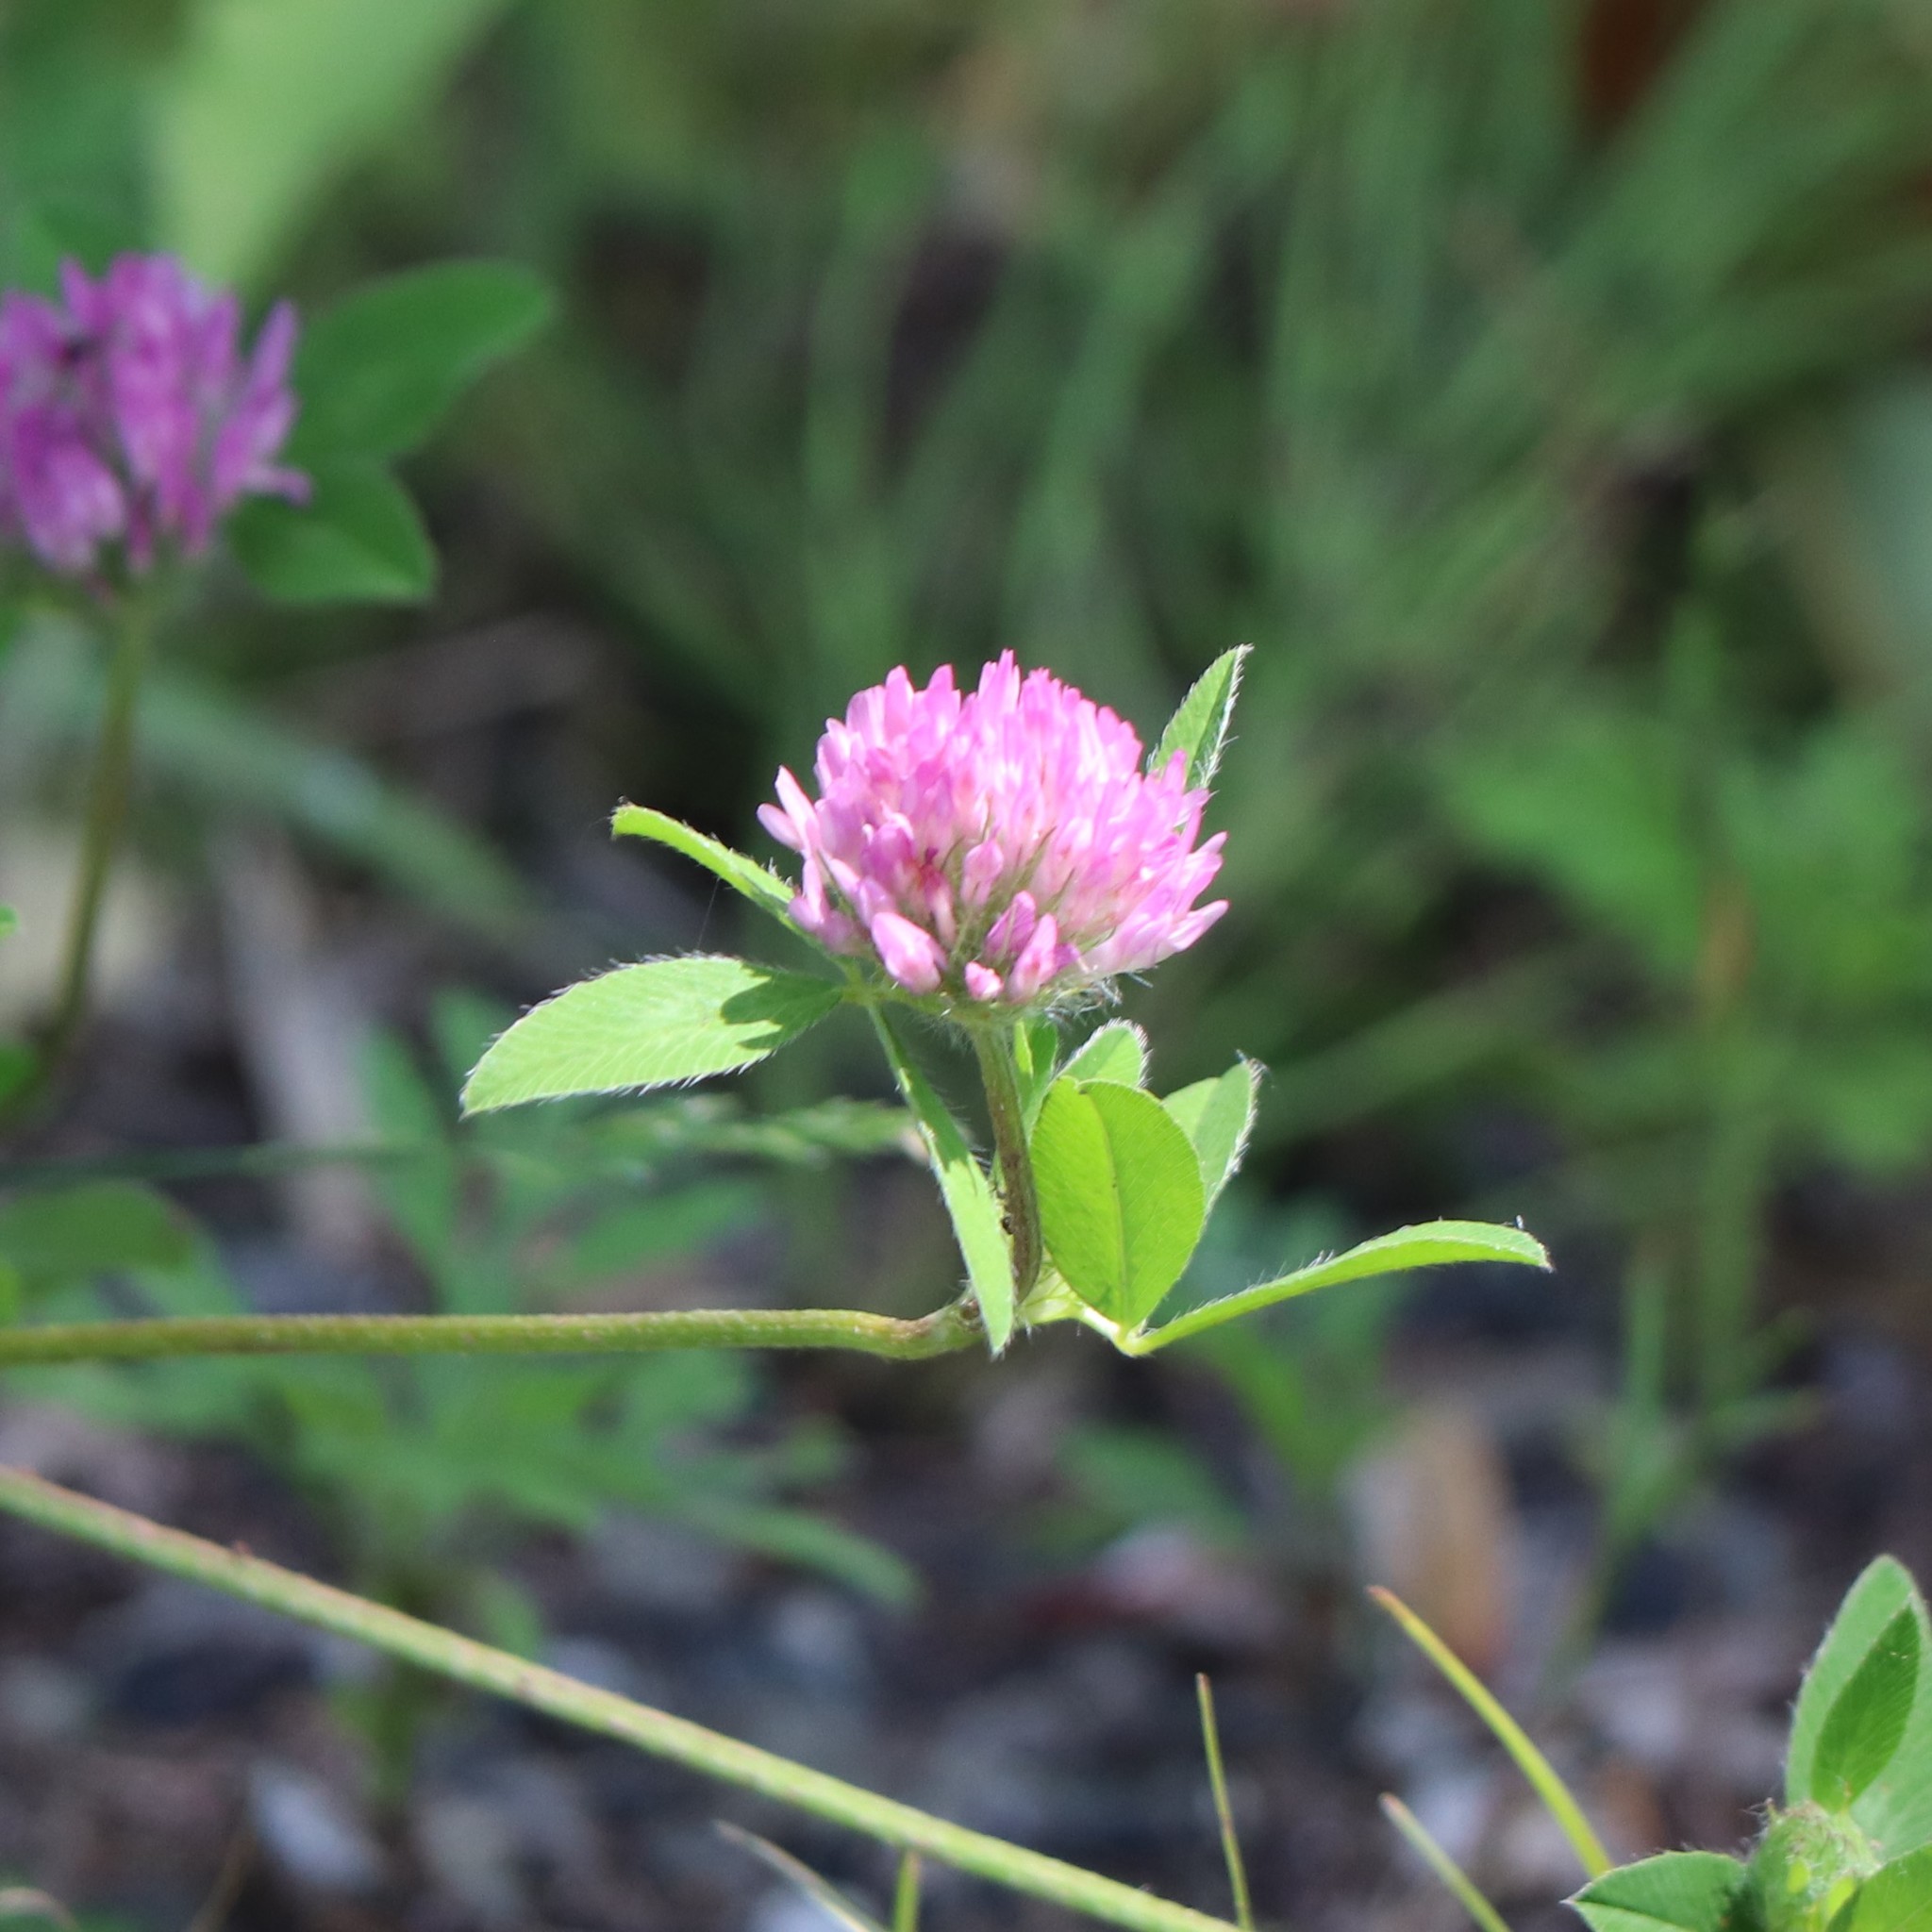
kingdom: Plantae
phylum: Tracheophyta
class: Magnoliopsida
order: Fabales
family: Fabaceae
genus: Trifolium
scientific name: Trifolium pratense
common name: Red clover
